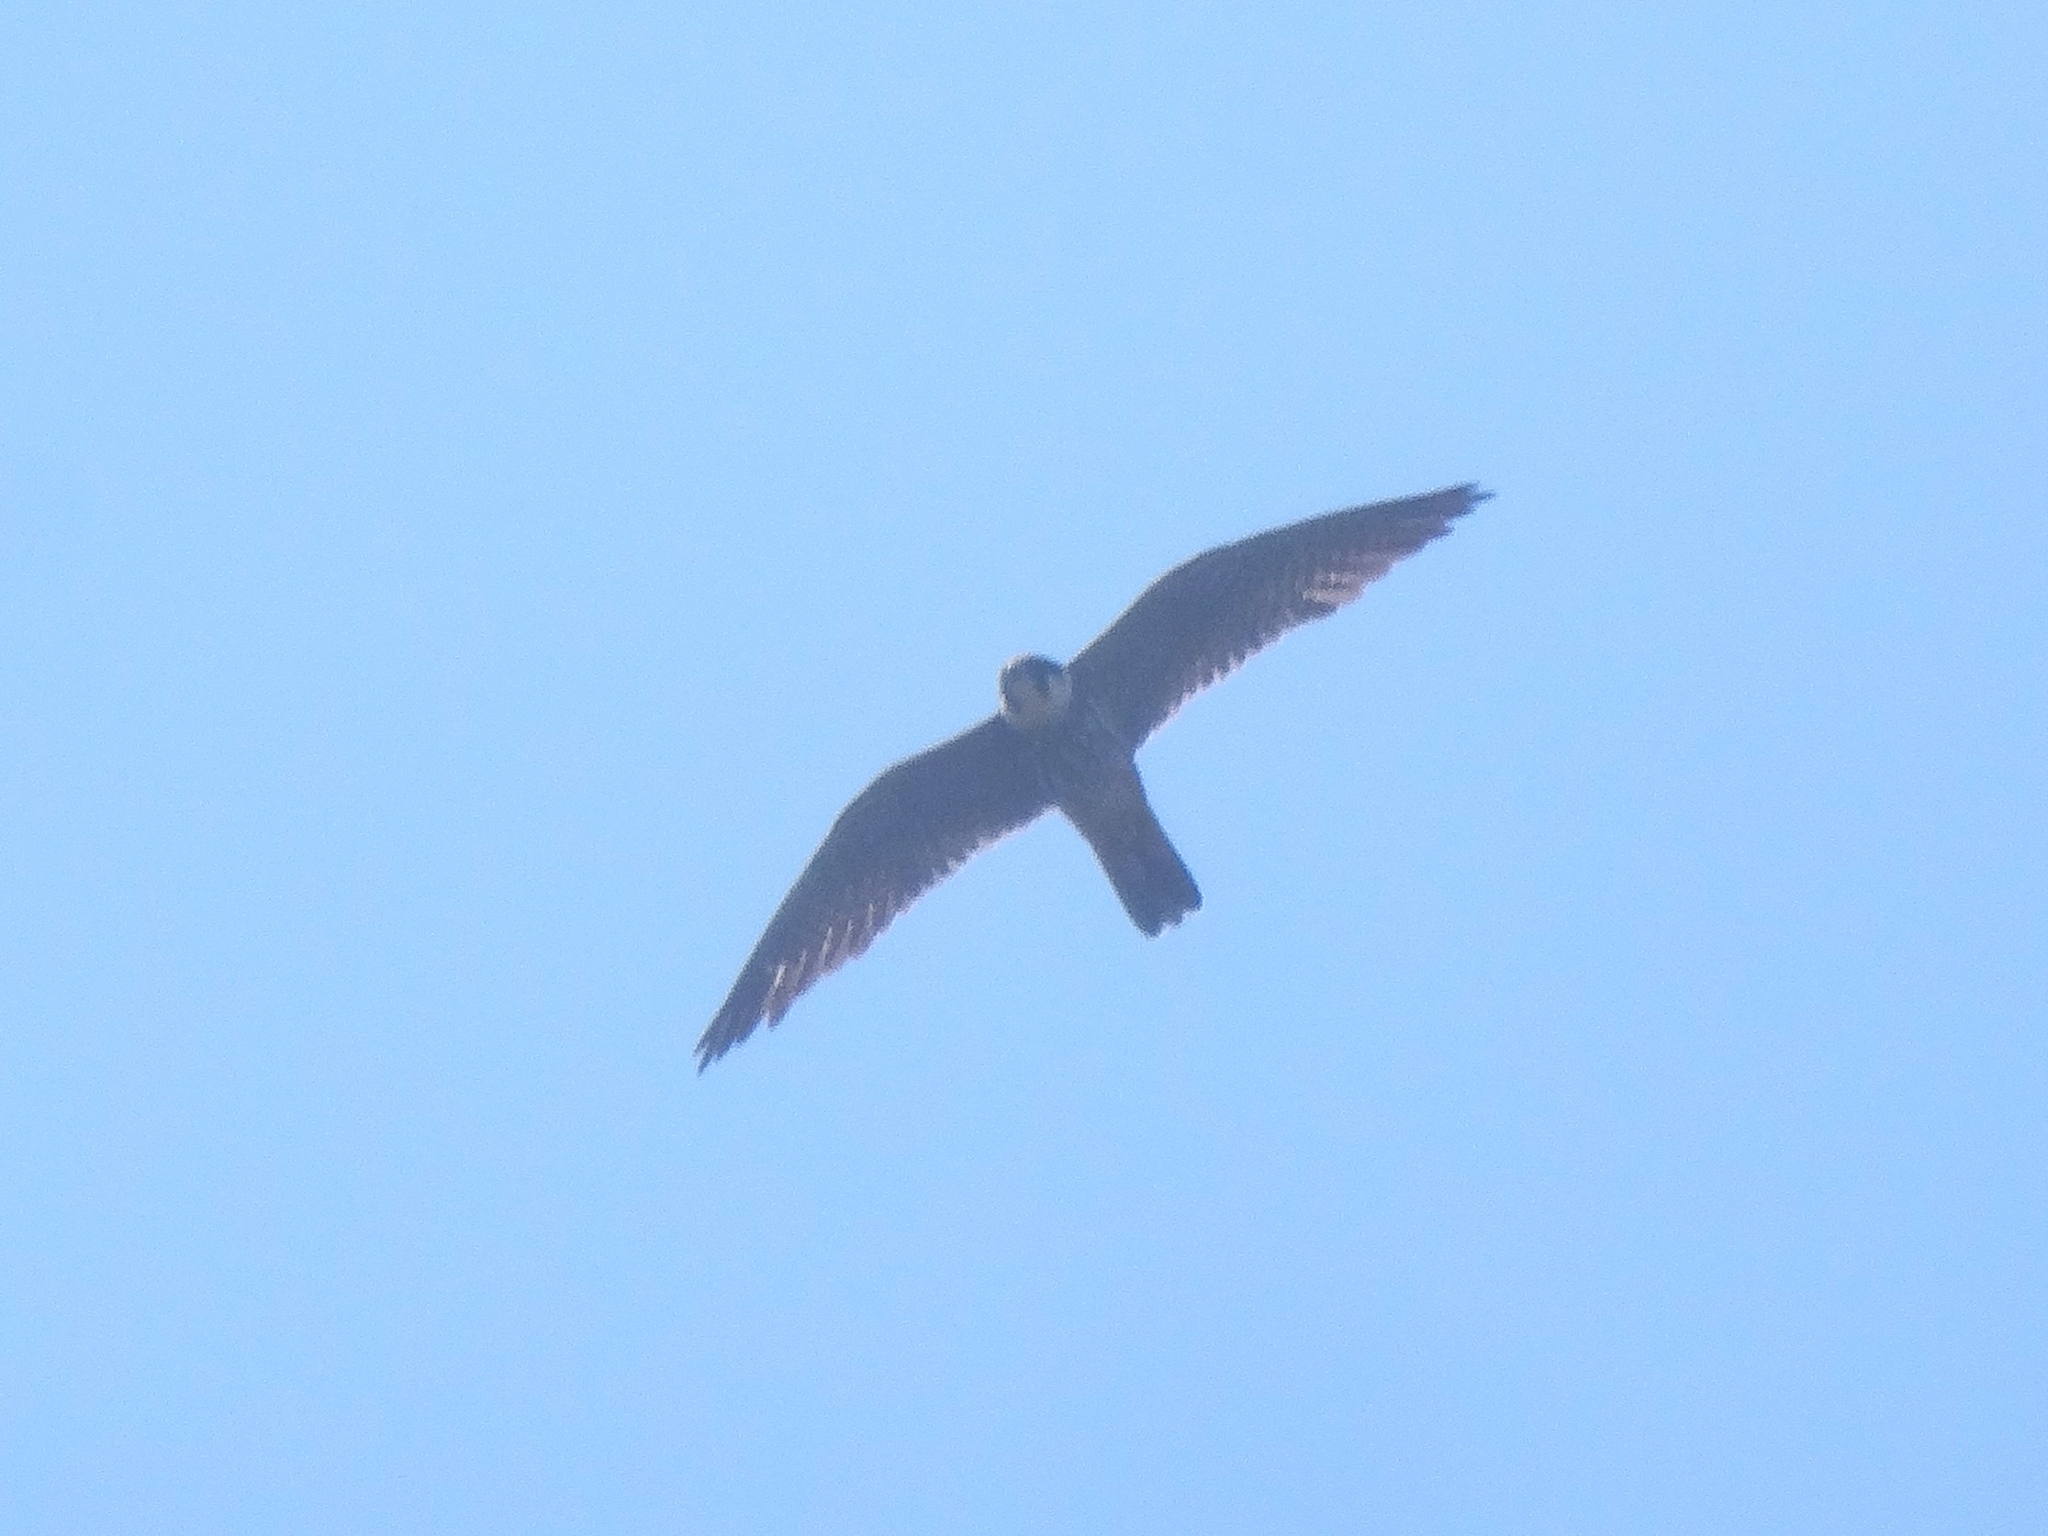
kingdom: Animalia
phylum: Chordata
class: Aves
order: Falconiformes
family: Falconidae
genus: Falco
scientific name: Falco subbuteo
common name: Eurasian hobby
